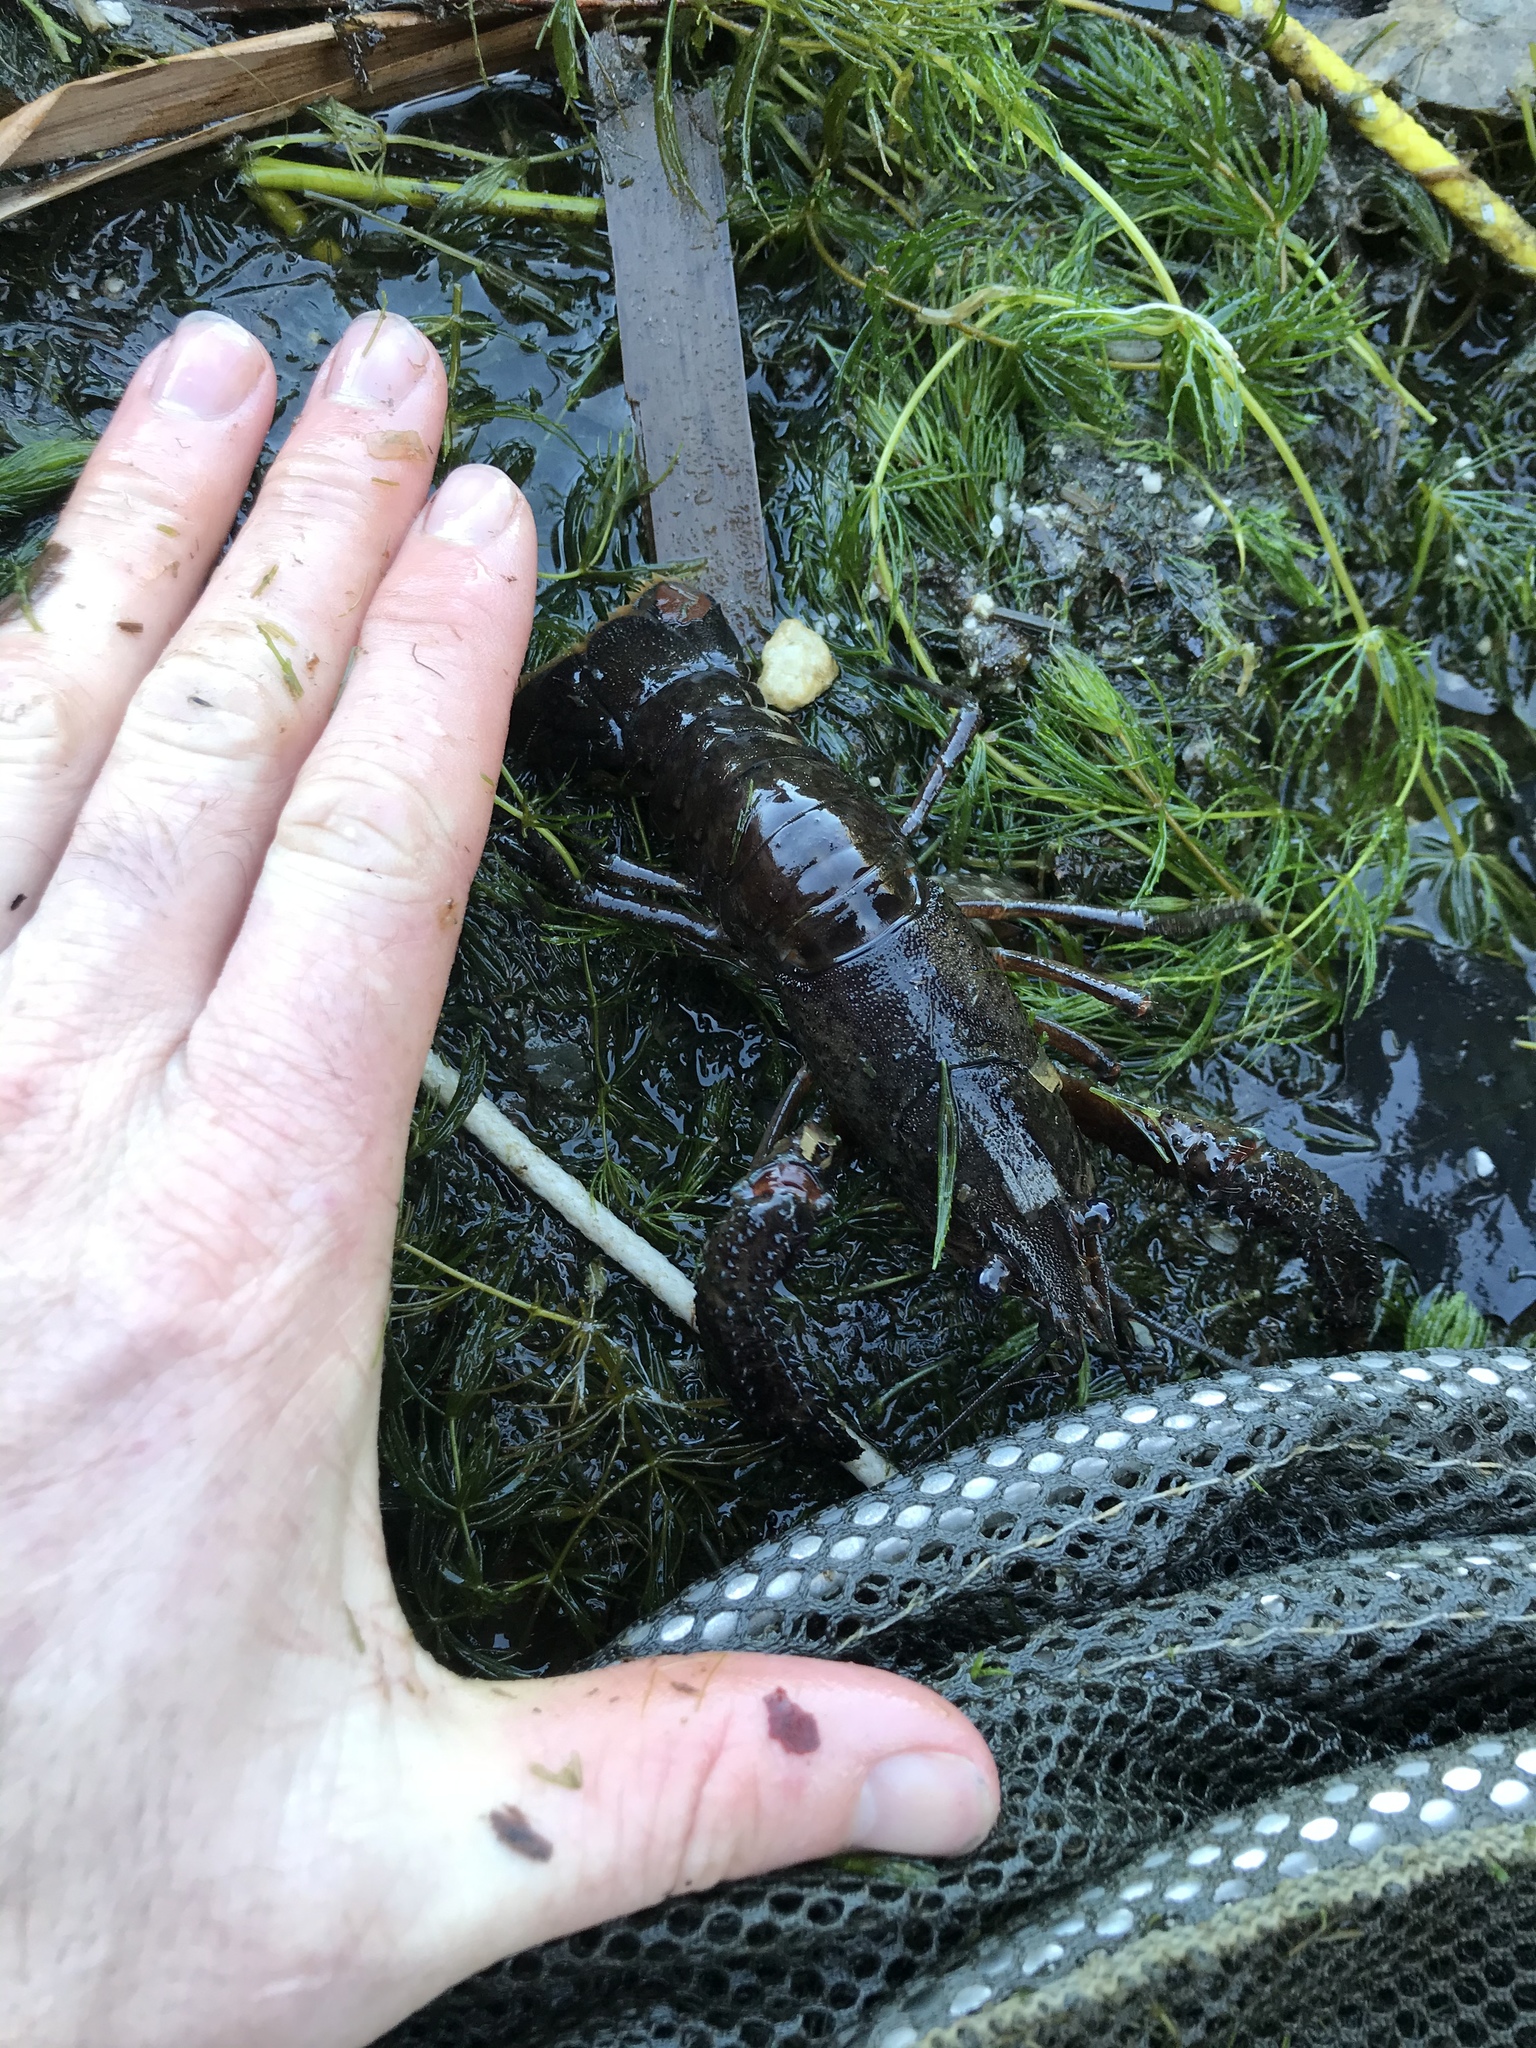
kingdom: Animalia
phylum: Arthropoda
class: Malacostraca
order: Decapoda
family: Parastacidae
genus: Paranephrops
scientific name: Paranephrops planifrons
